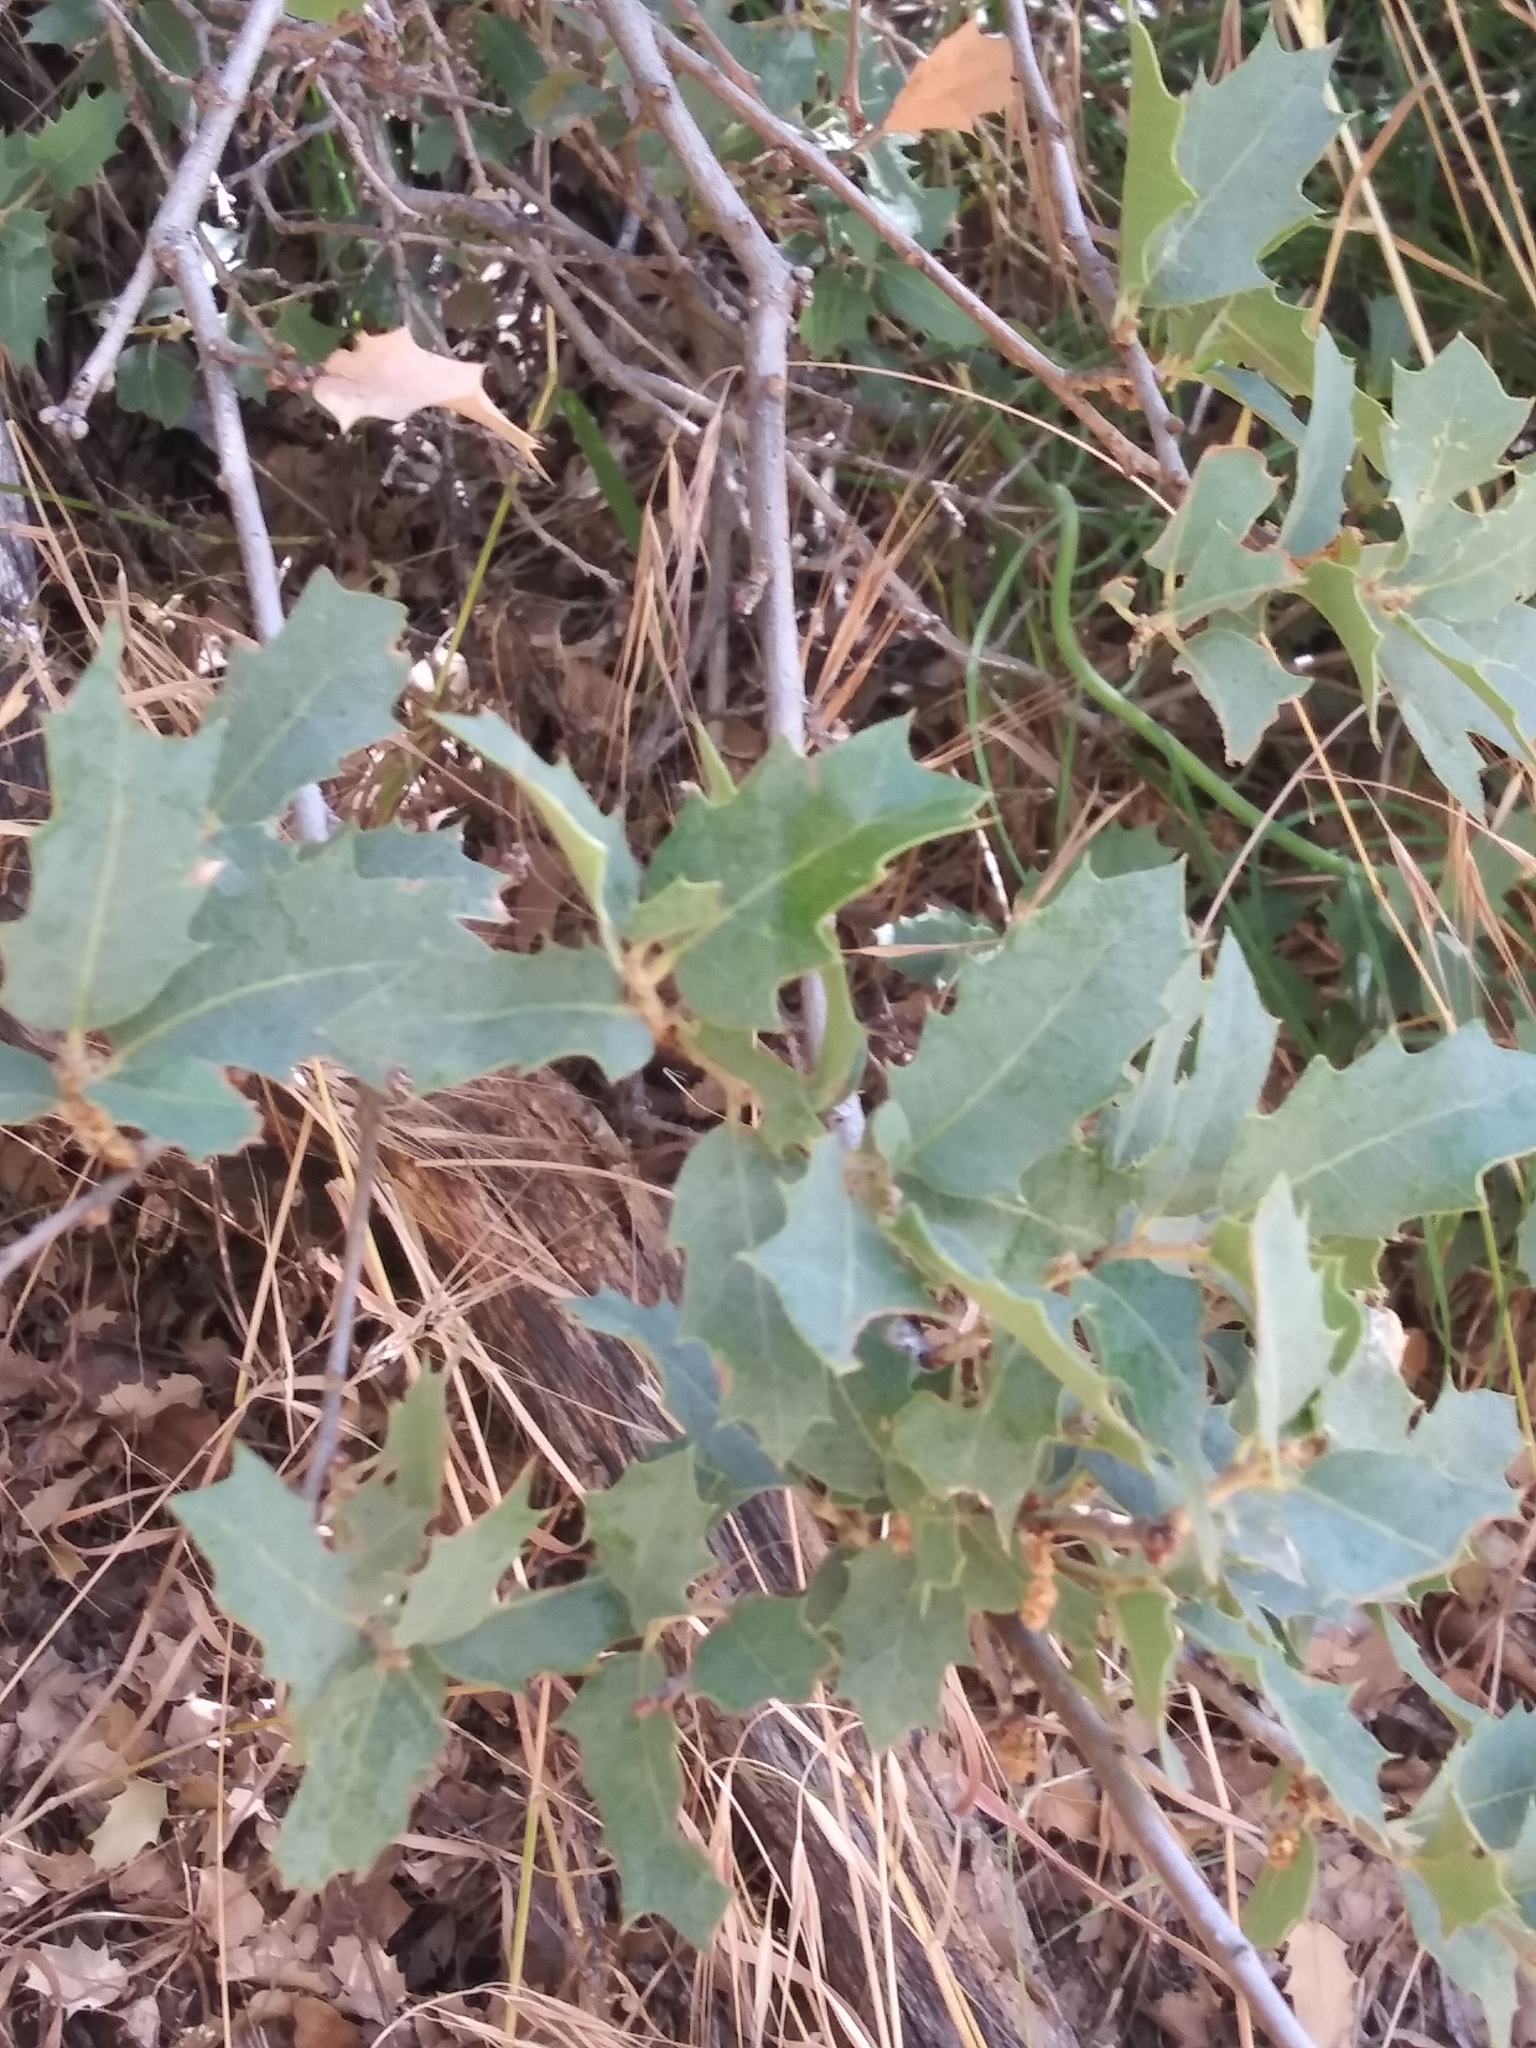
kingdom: Plantae
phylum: Tracheophyta
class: Magnoliopsida
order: Fagales
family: Fagaceae
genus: Quercus
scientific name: Quercus turbinella
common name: Sonoran scrub oak
